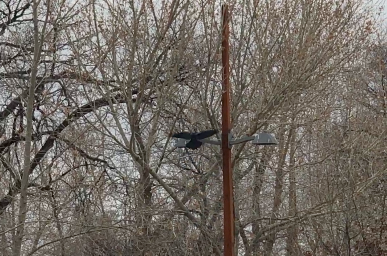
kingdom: Animalia
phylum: Chordata
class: Aves
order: Passeriformes
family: Corvidae
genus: Corvus
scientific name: Corvus brachyrhynchos
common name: American crow
